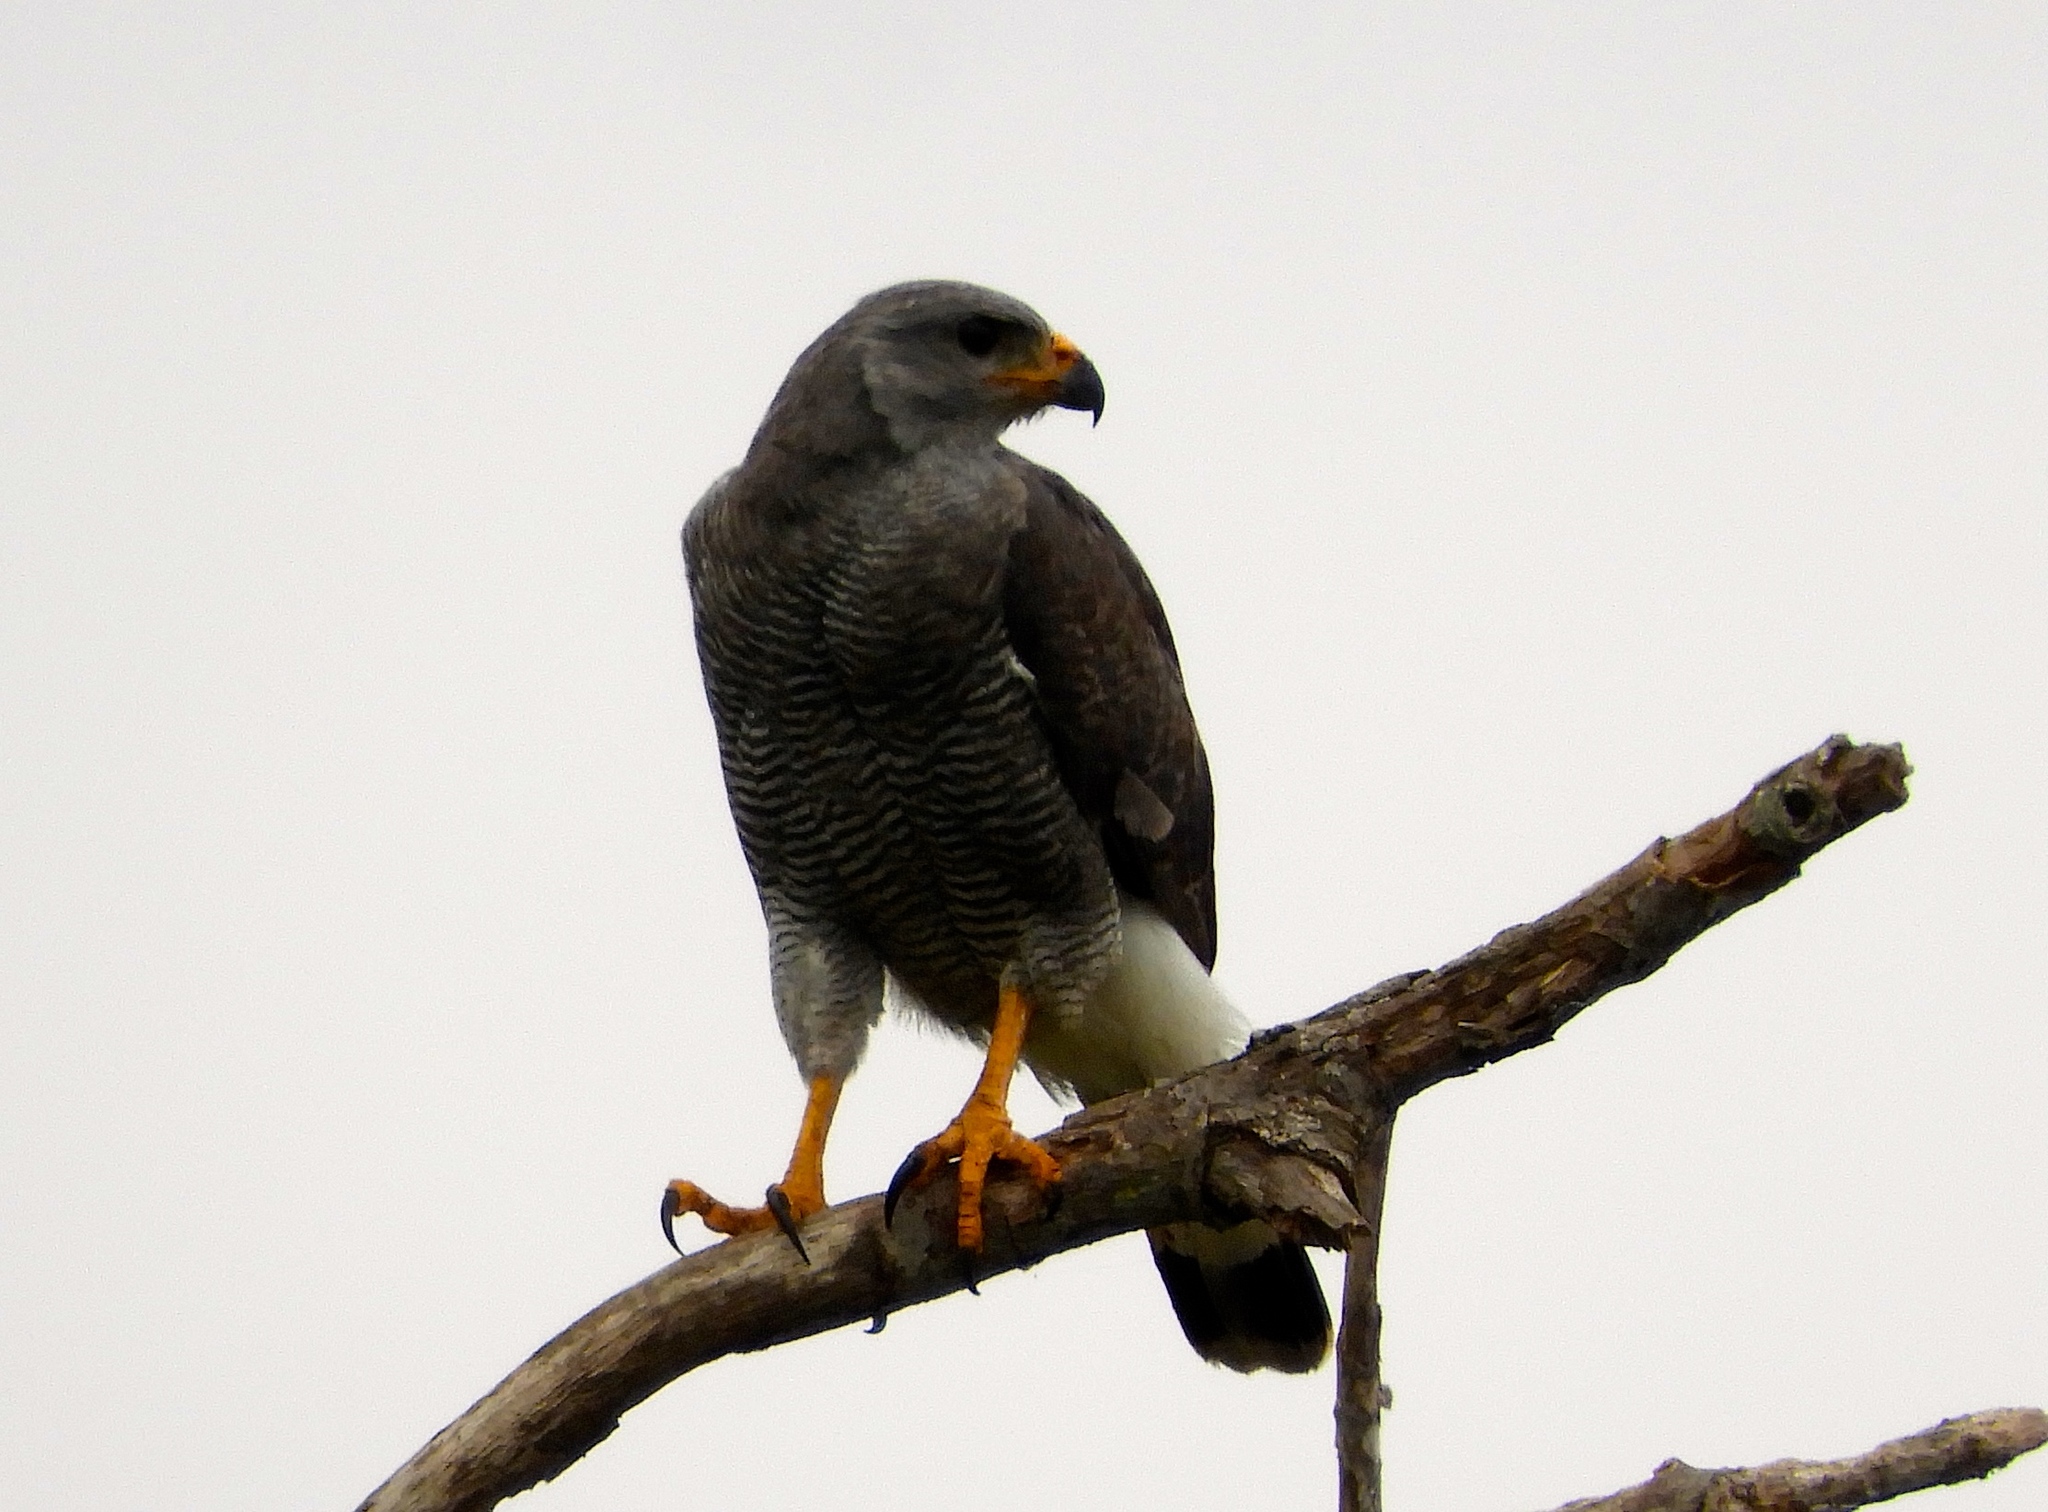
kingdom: Animalia
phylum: Chordata
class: Aves
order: Accipitriformes
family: Accipitridae
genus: Buteo
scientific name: Buteo nitidus
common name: Grey-lined hawk
